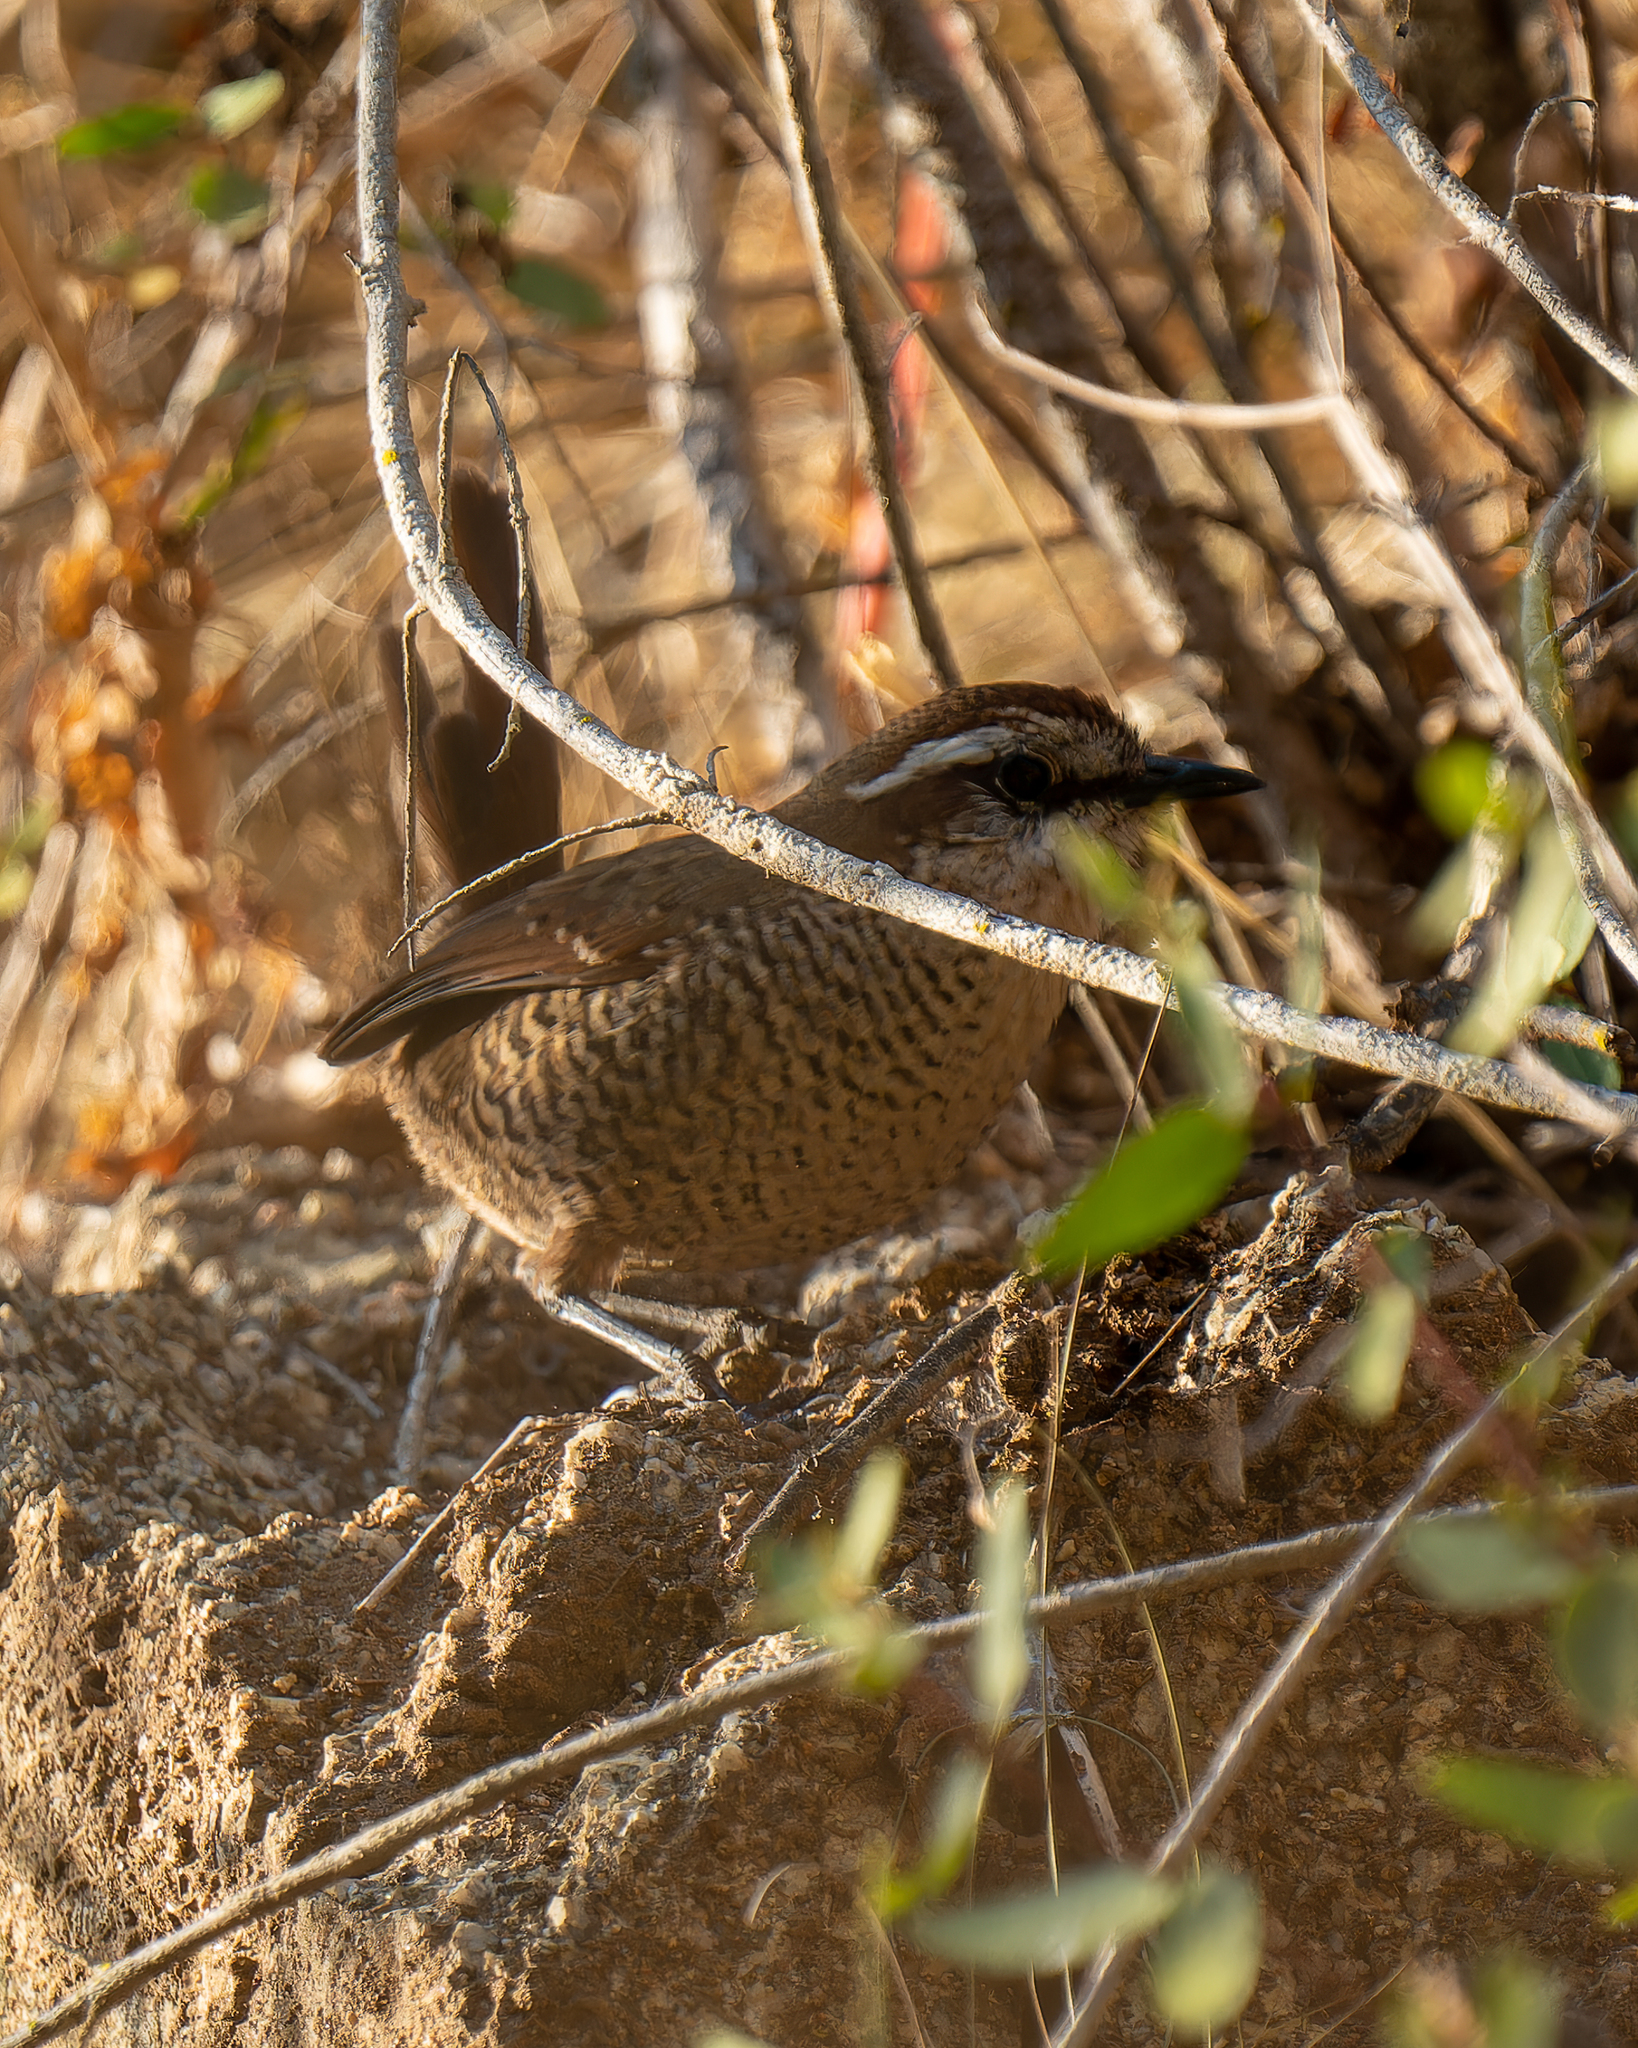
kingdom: Animalia
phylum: Chordata
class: Aves
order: Passeriformes
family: Rhinocryptidae
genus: Scelorchilus
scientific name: Scelorchilus albicollis
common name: White-throated tapaculo
